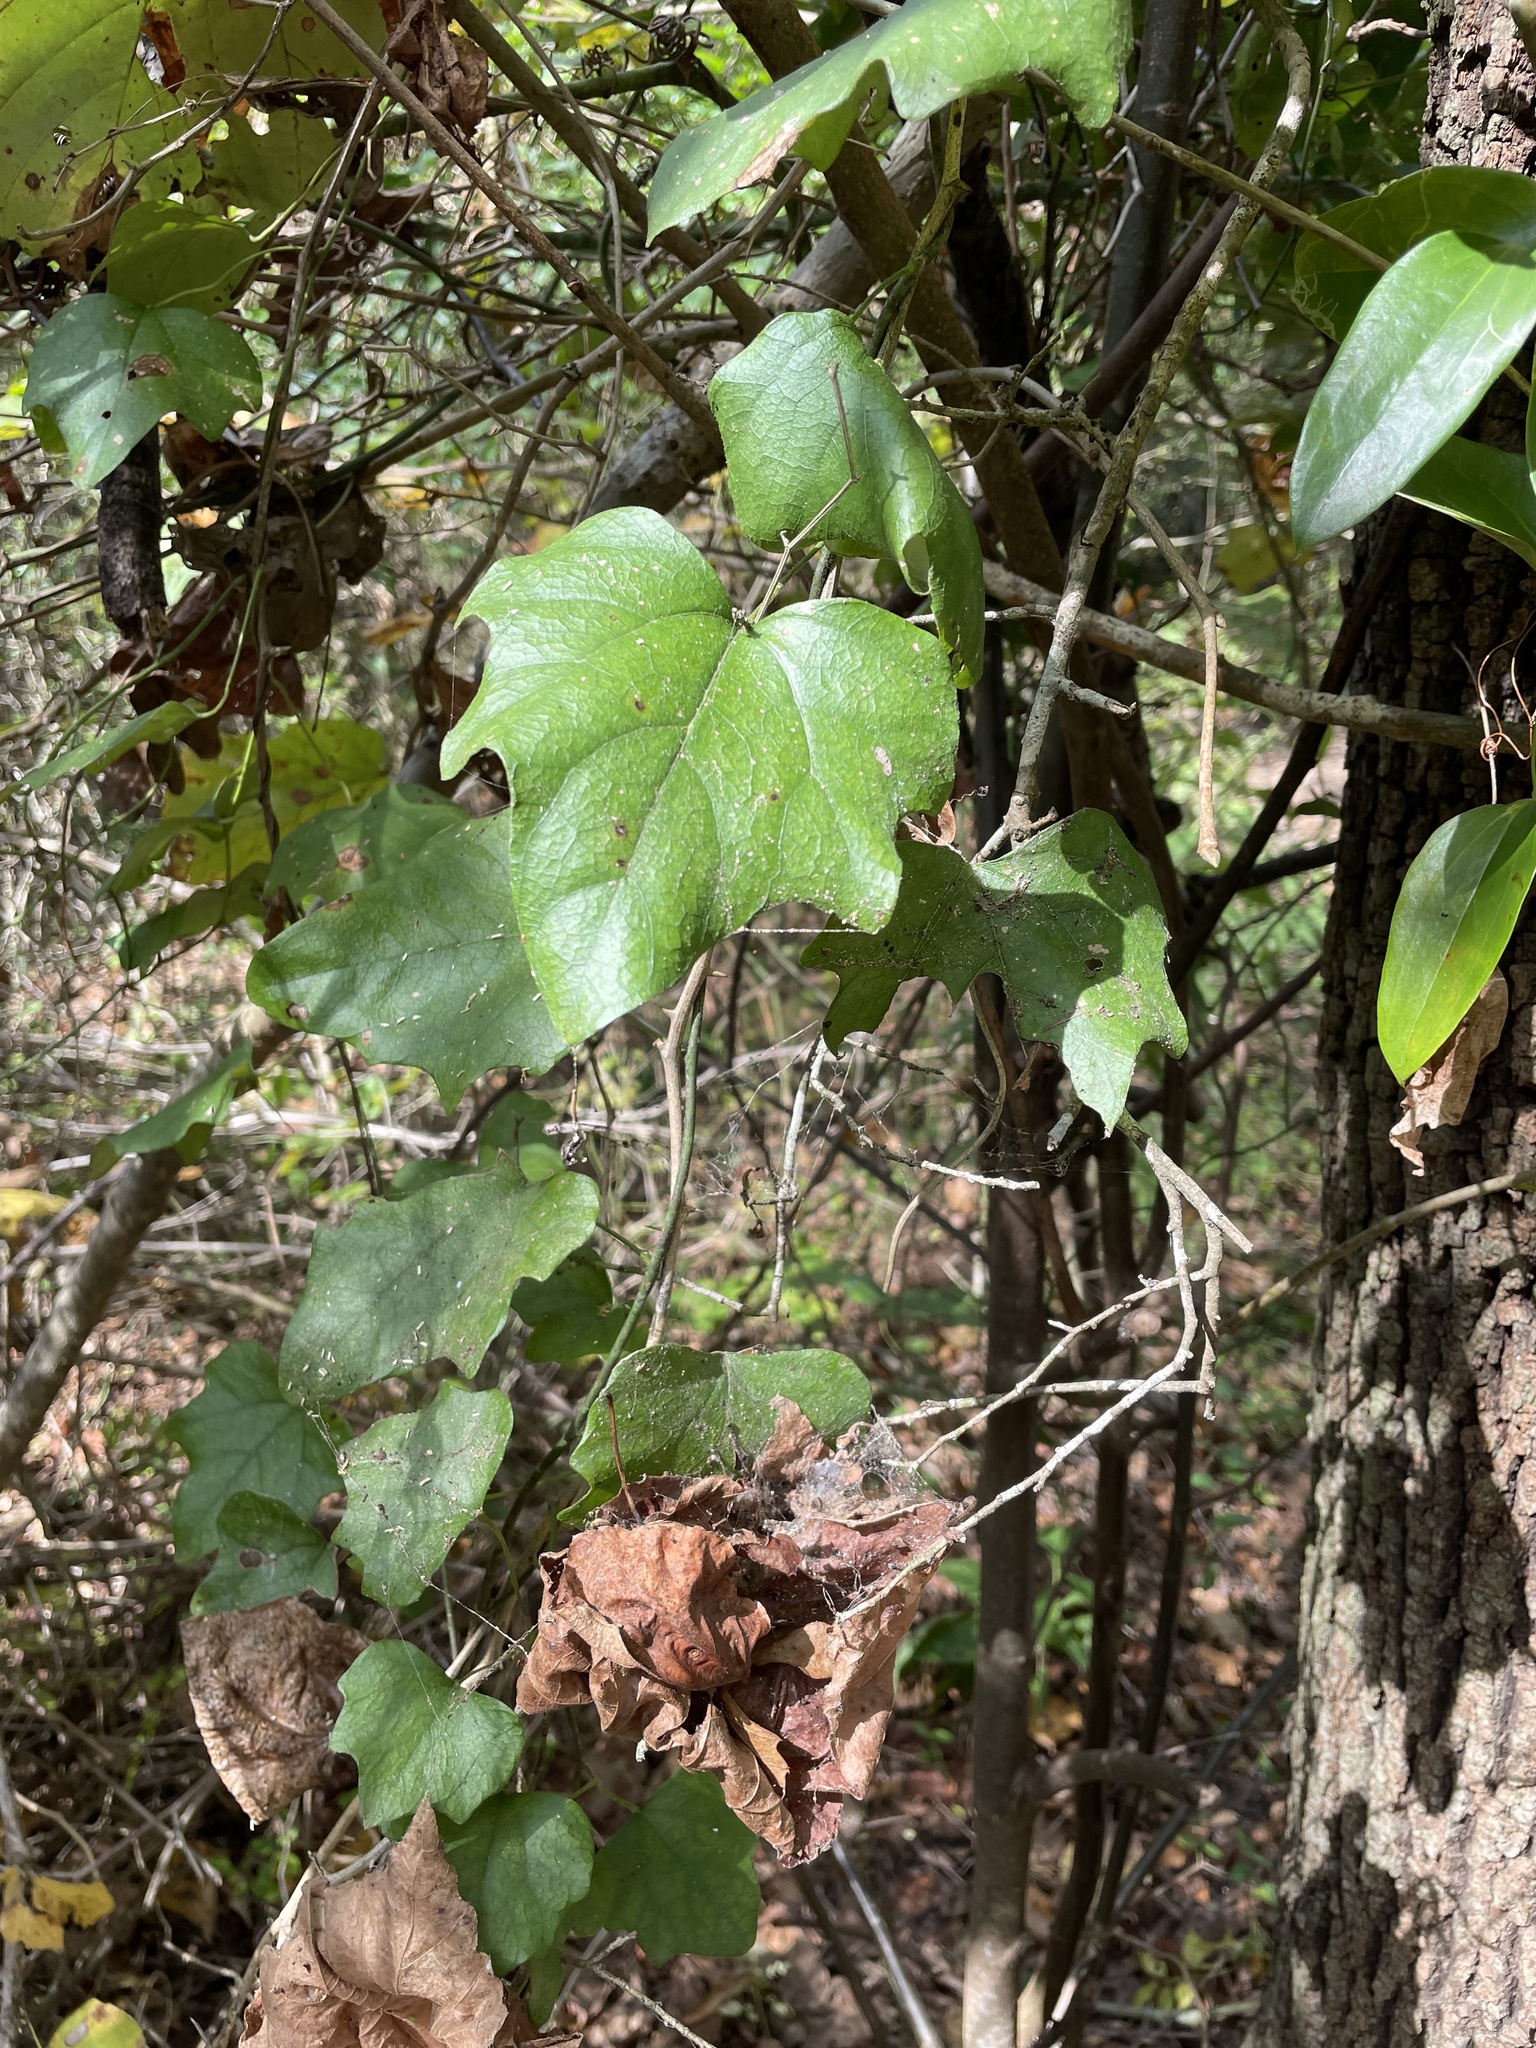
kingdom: Plantae
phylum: Tracheophyta
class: Magnoliopsida
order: Ranunculales
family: Menispermaceae
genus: Cocculus
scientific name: Cocculus carolinus
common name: Carolina moonseed
